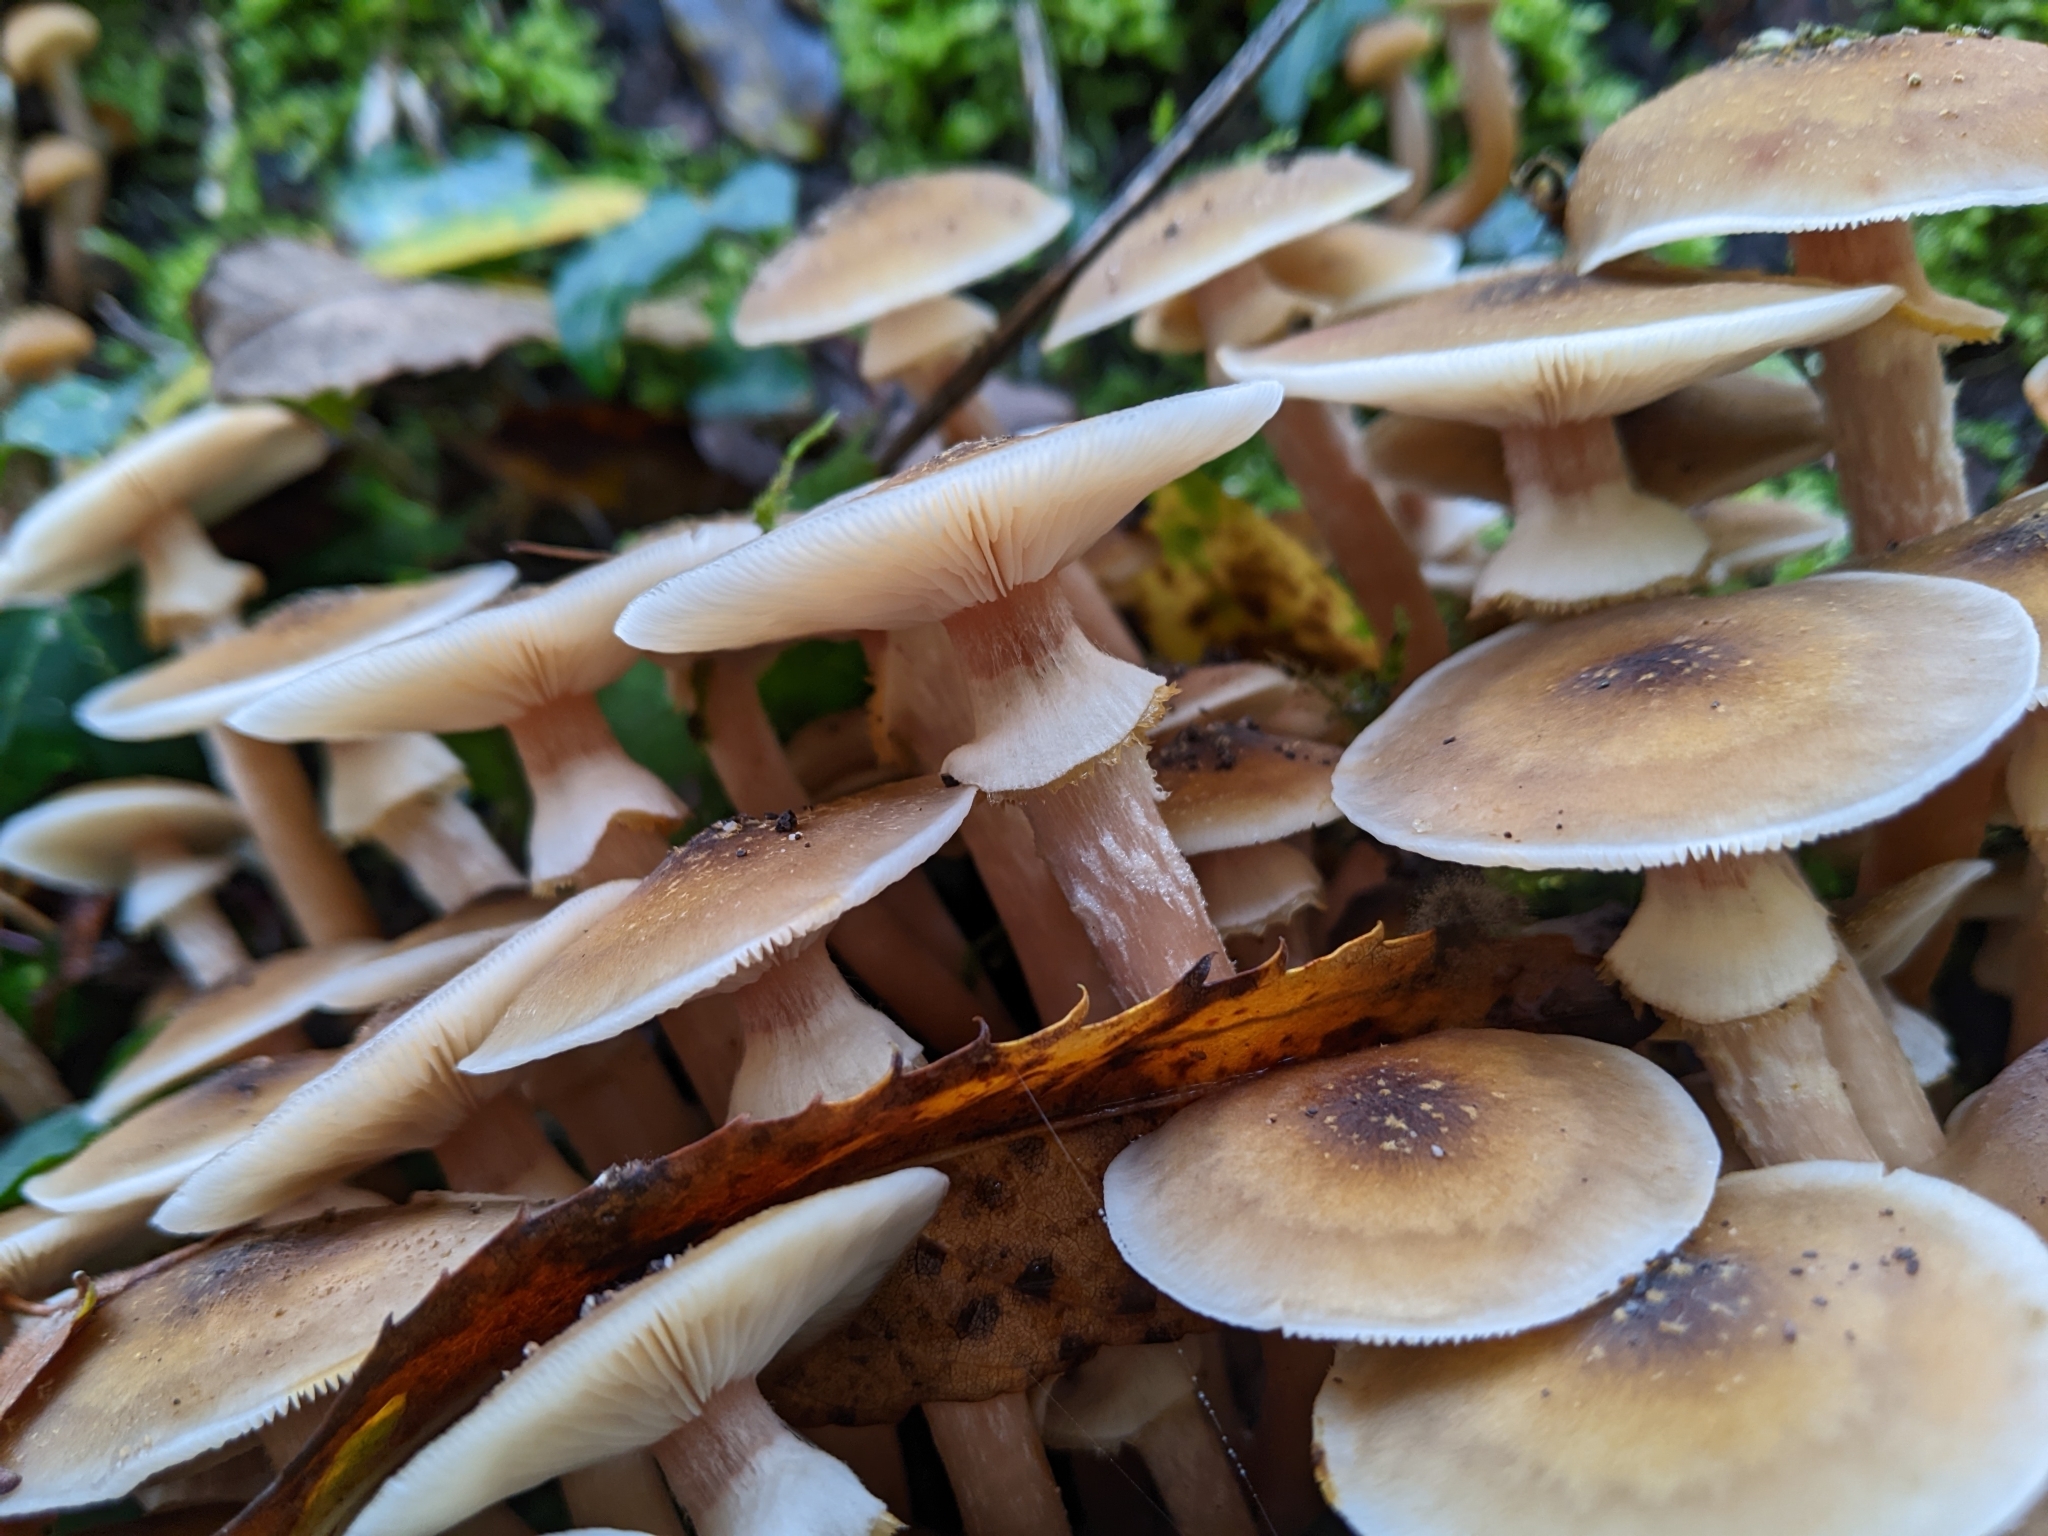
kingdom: Fungi
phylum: Basidiomycota
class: Agaricomycetes
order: Agaricales
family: Physalacriaceae
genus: Armillaria
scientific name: Armillaria mellea
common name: Honey fungus
